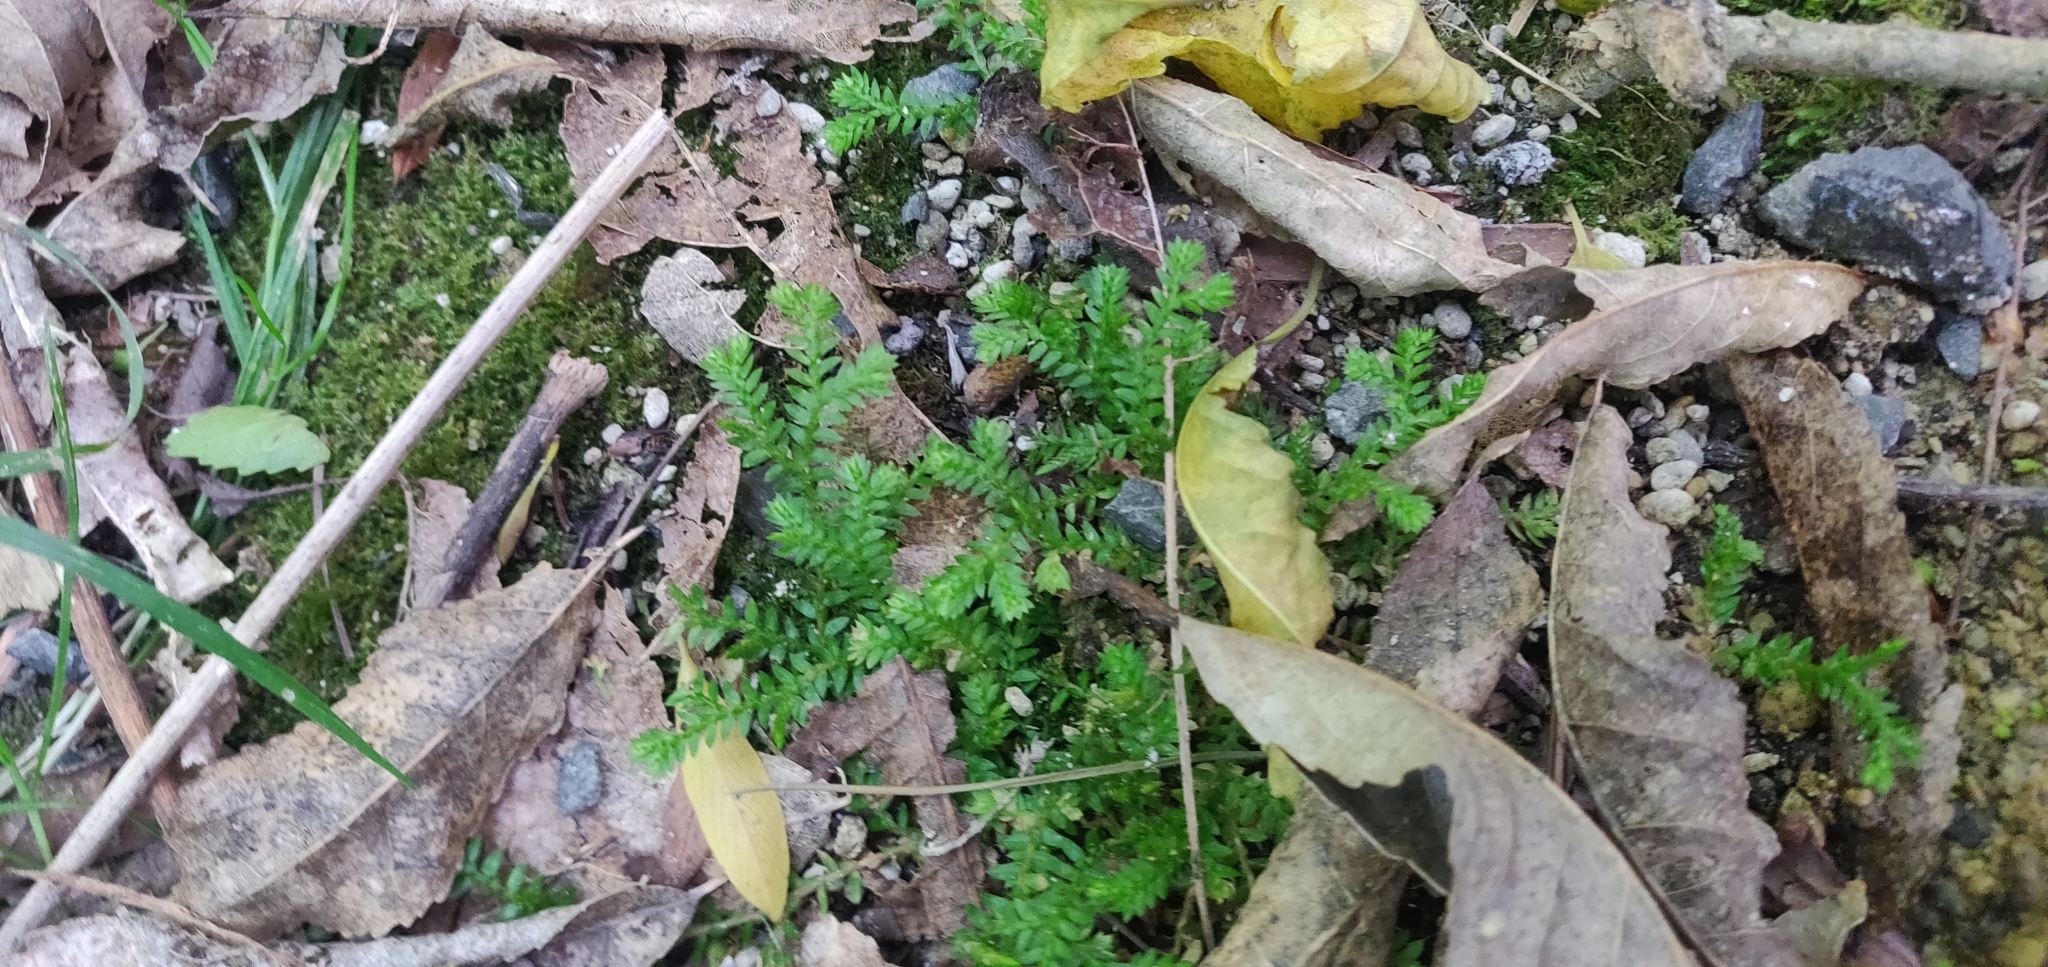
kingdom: Plantae
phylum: Tracheophyta
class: Lycopodiopsida
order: Selaginellales
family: Selaginellaceae
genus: Selaginella
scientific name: Selaginella kraussiana
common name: Krauss' spikemoss
